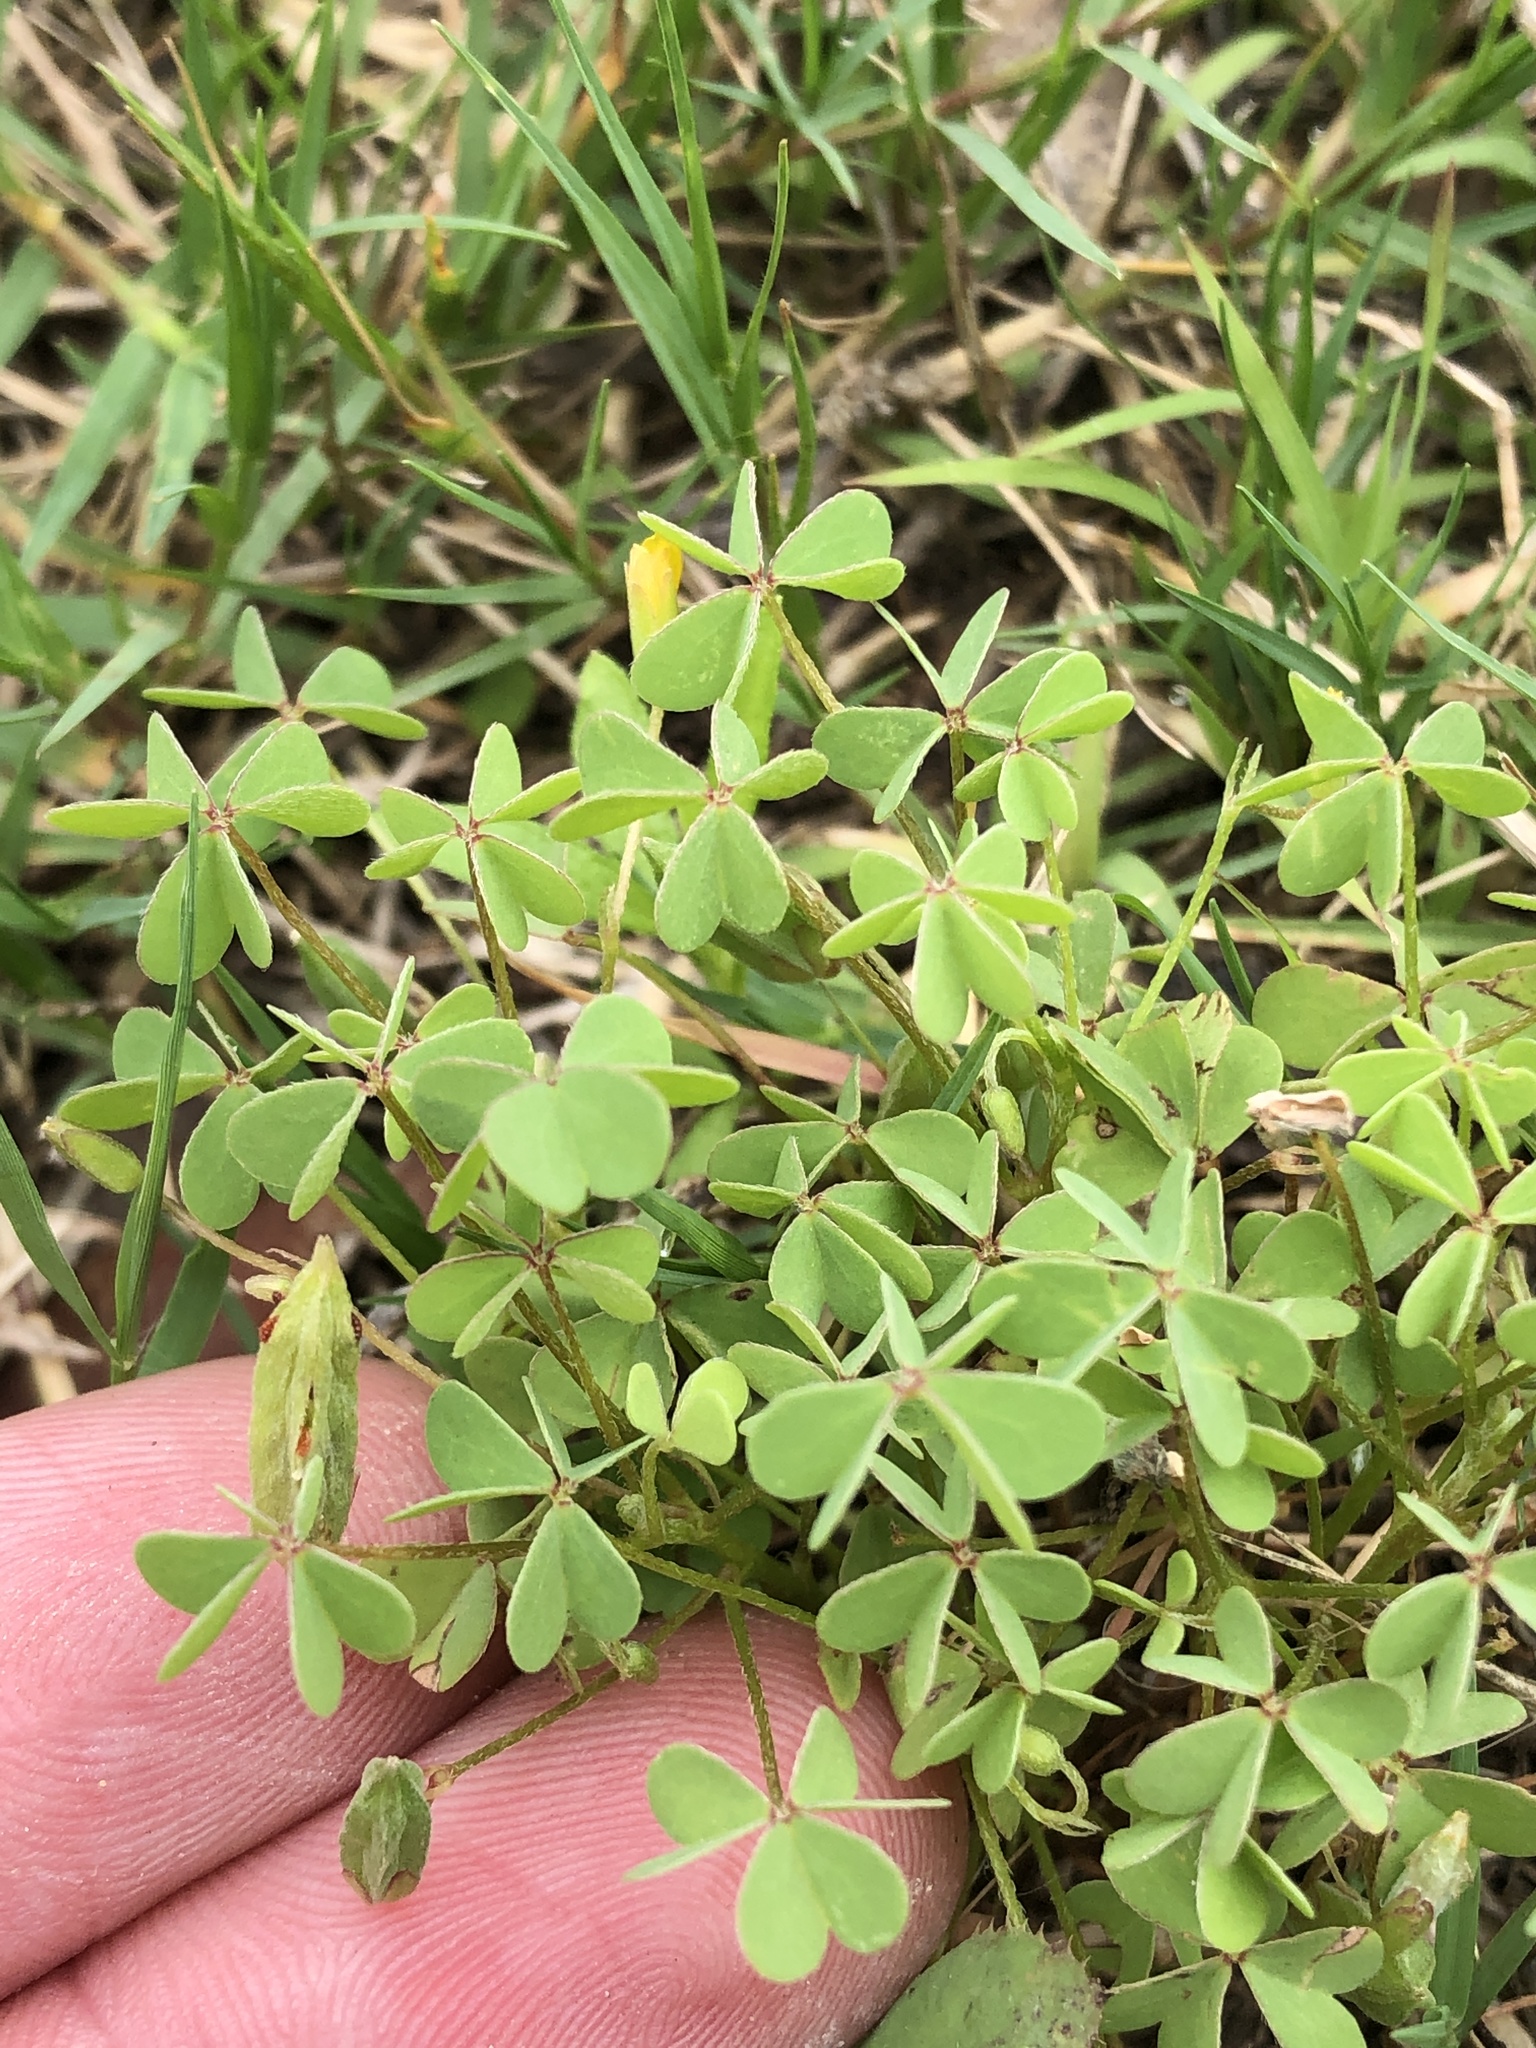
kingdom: Plantae
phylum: Tracheophyta
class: Magnoliopsida
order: Oxalidales
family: Oxalidaceae
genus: Oxalis
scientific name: Oxalis dillenii
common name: Sussex yellow-sorrel
